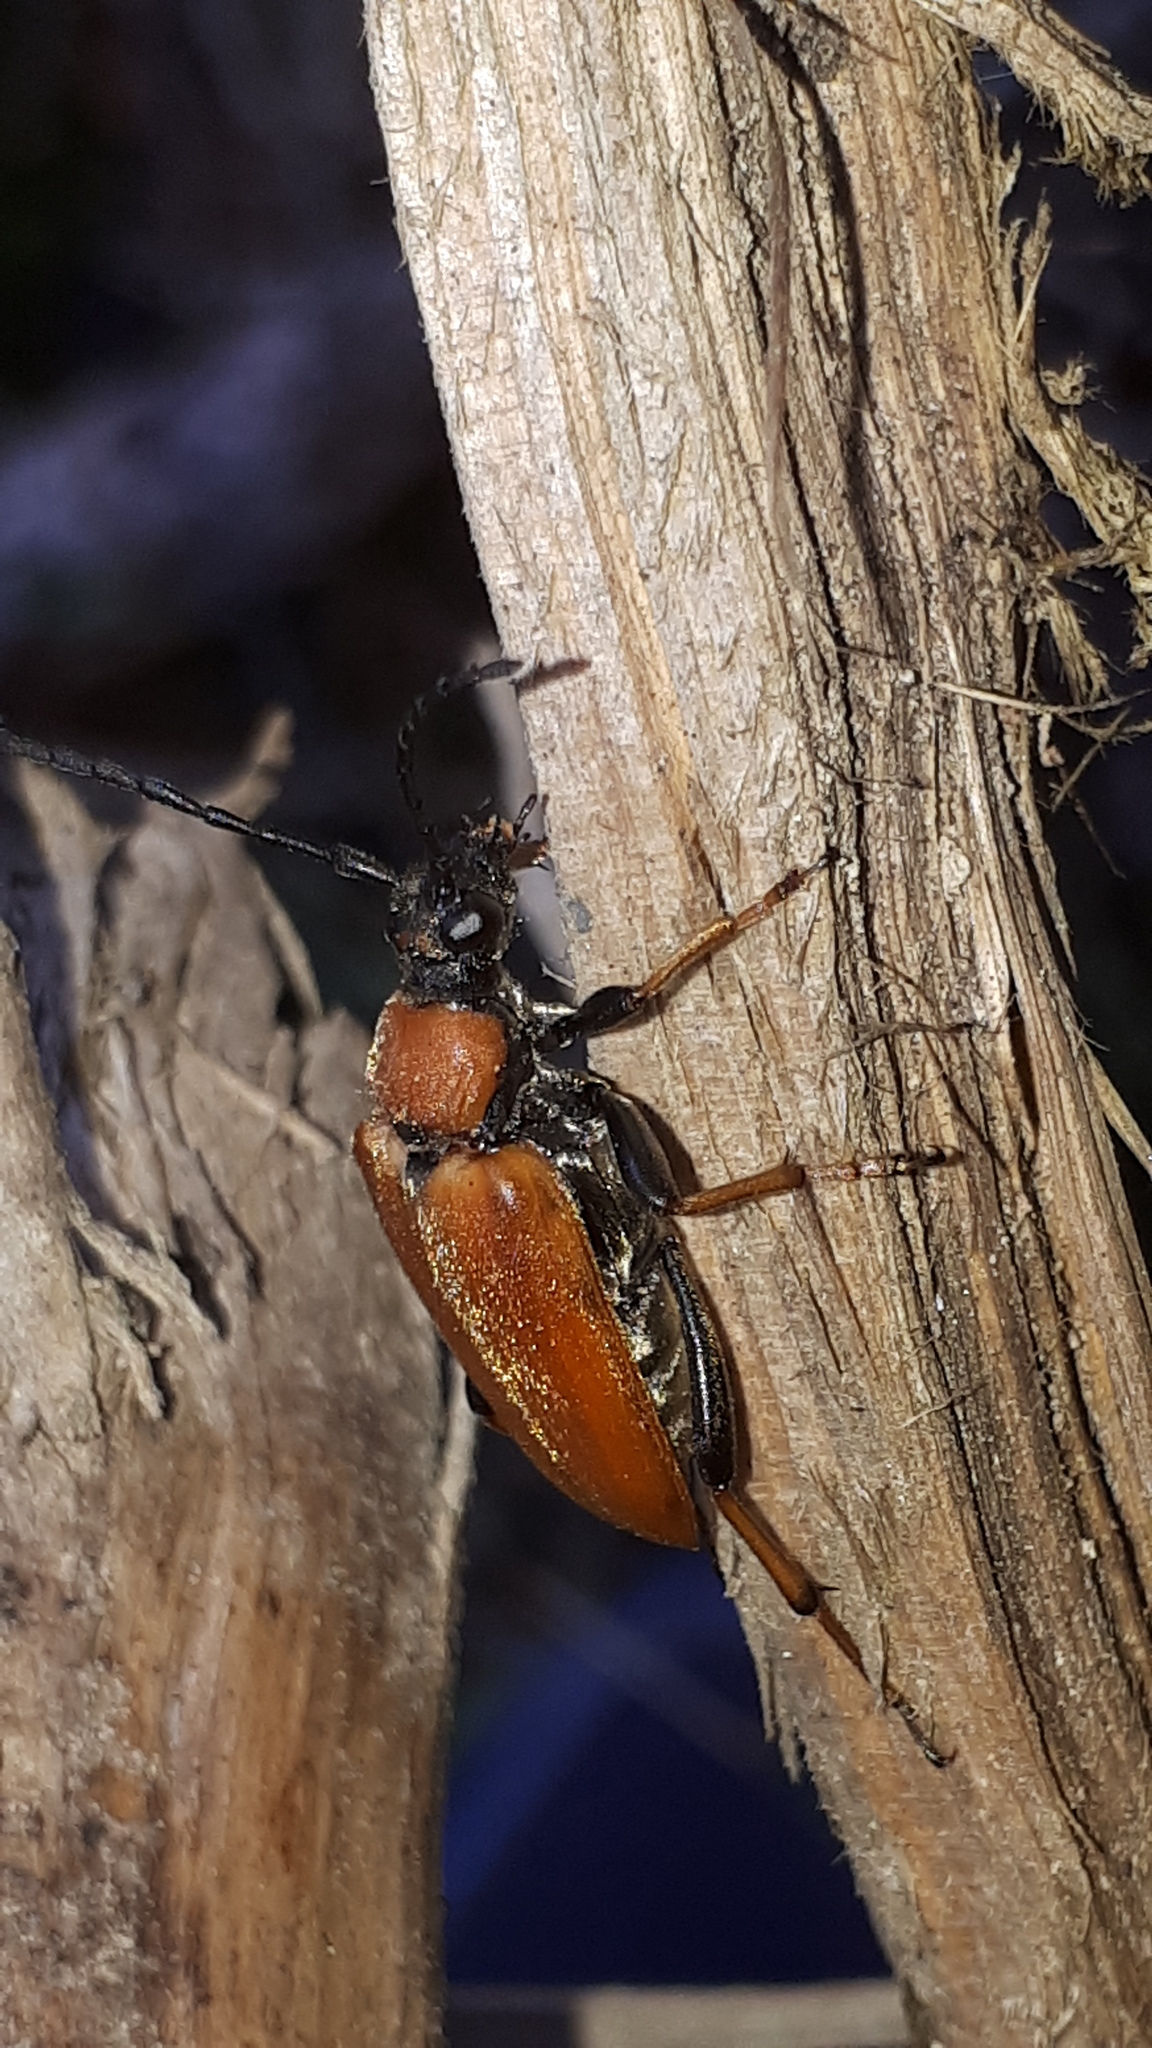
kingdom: Animalia
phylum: Arthropoda
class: Insecta
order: Coleoptera
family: Cerambycidae
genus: Stictoleptura
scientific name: Stictoleptura rubra
